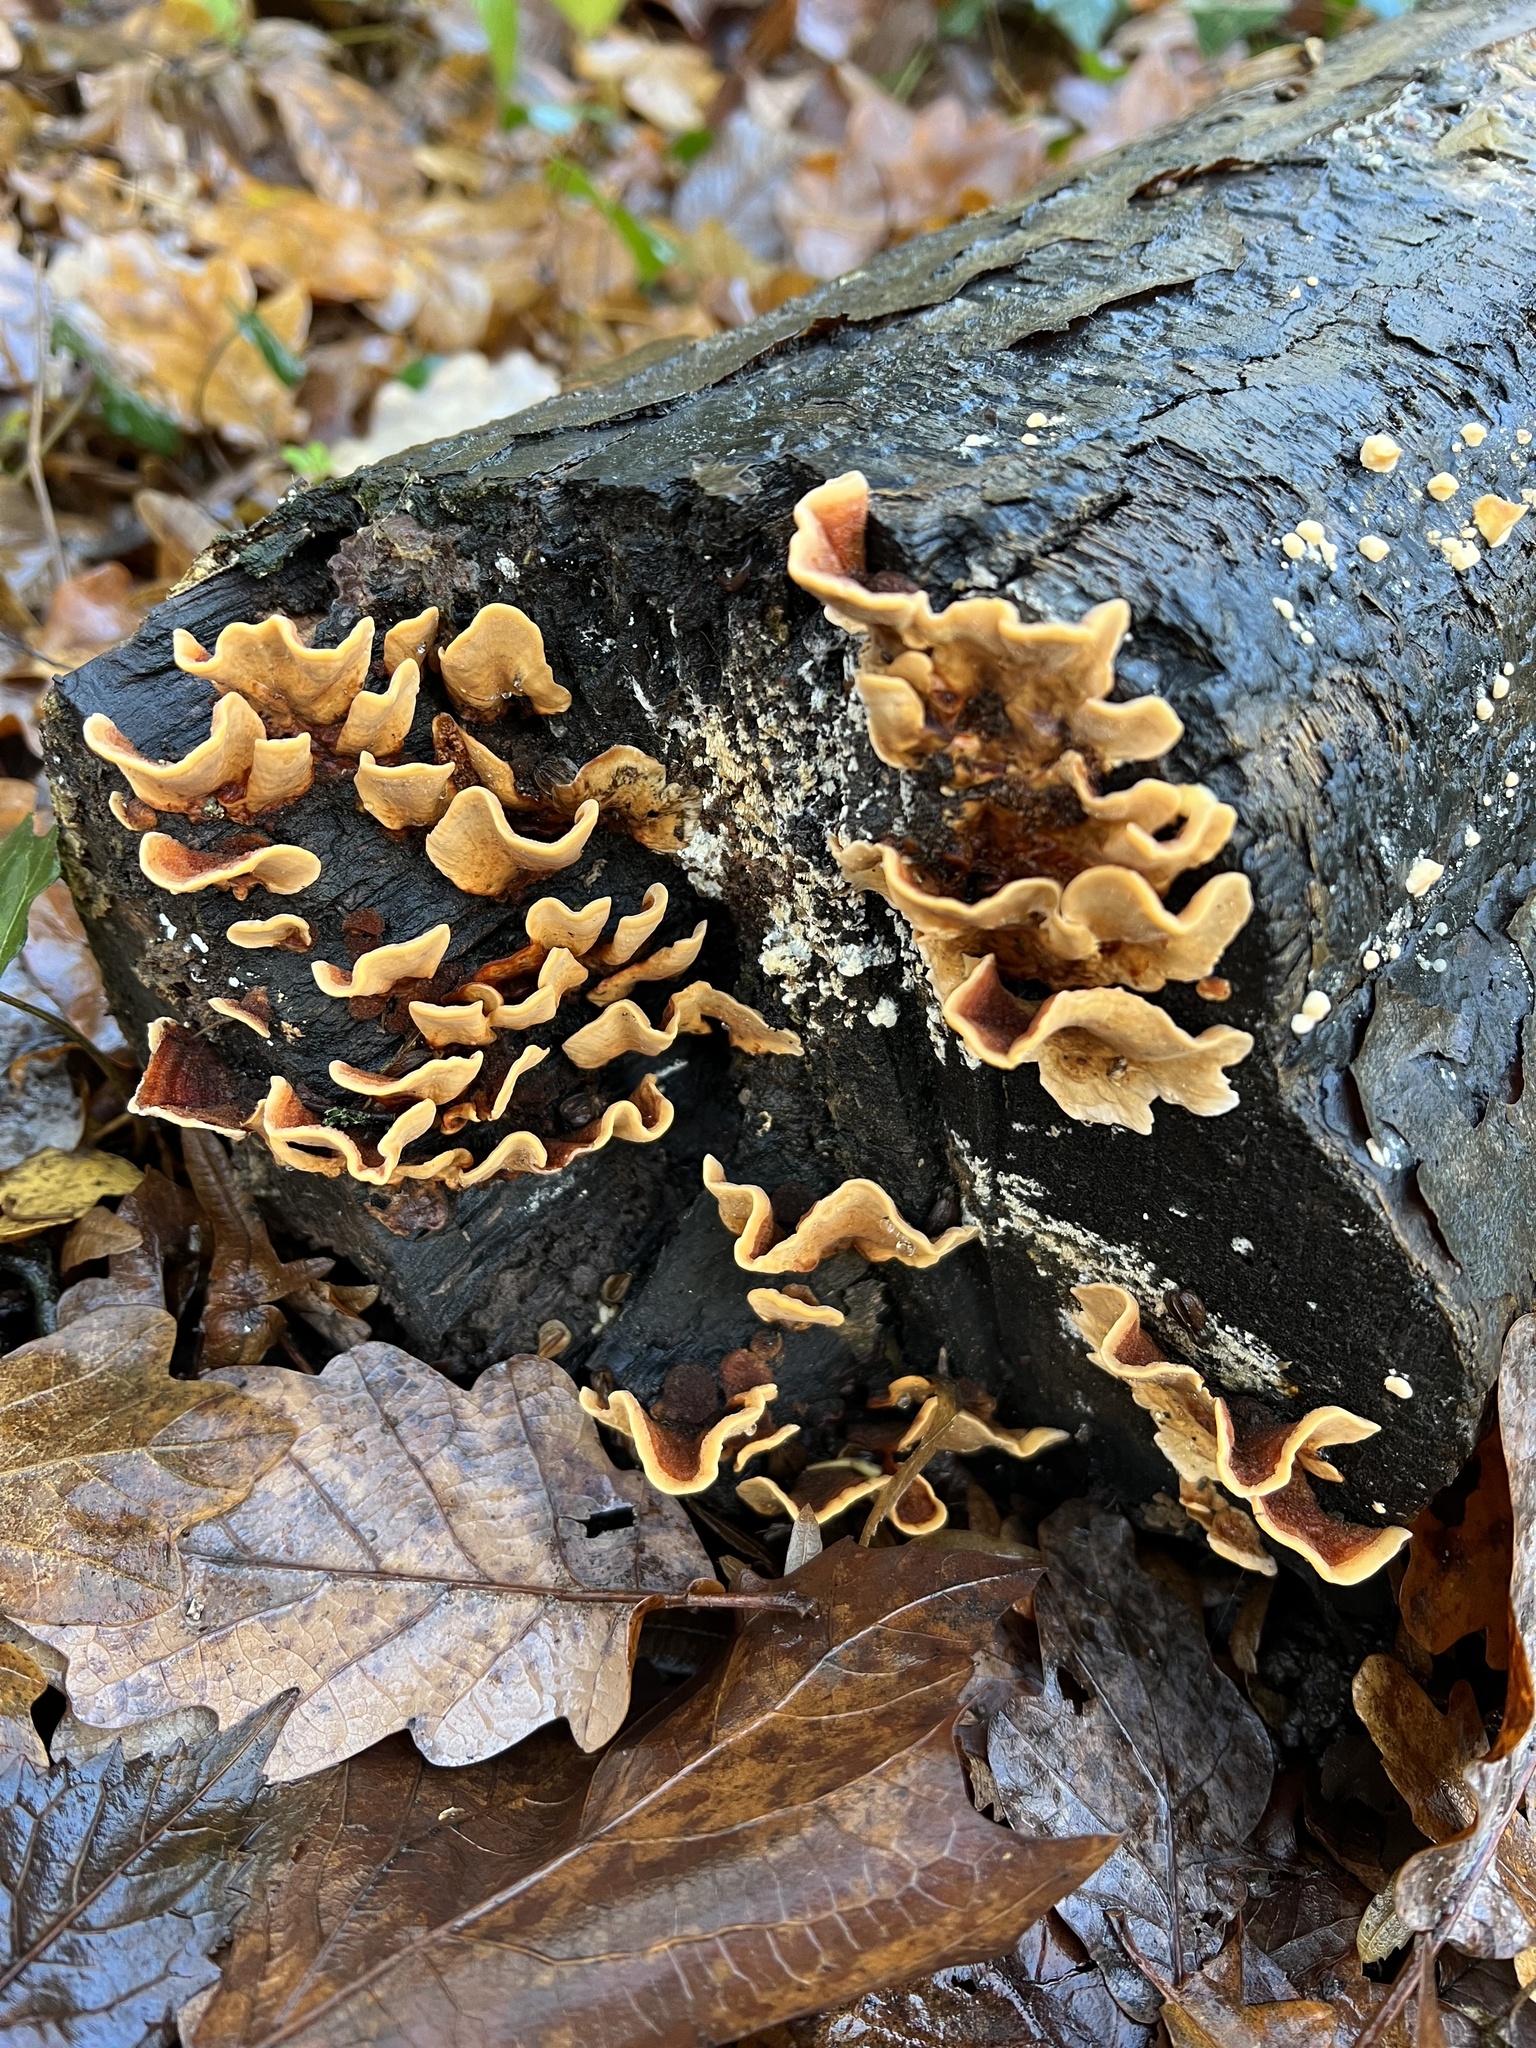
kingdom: Fungi
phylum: Basidiomycota
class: Agaricomycetes
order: Russulales
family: Stereaceae
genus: Stereum
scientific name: Stereum hirsutum
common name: Hairy curtain crust
